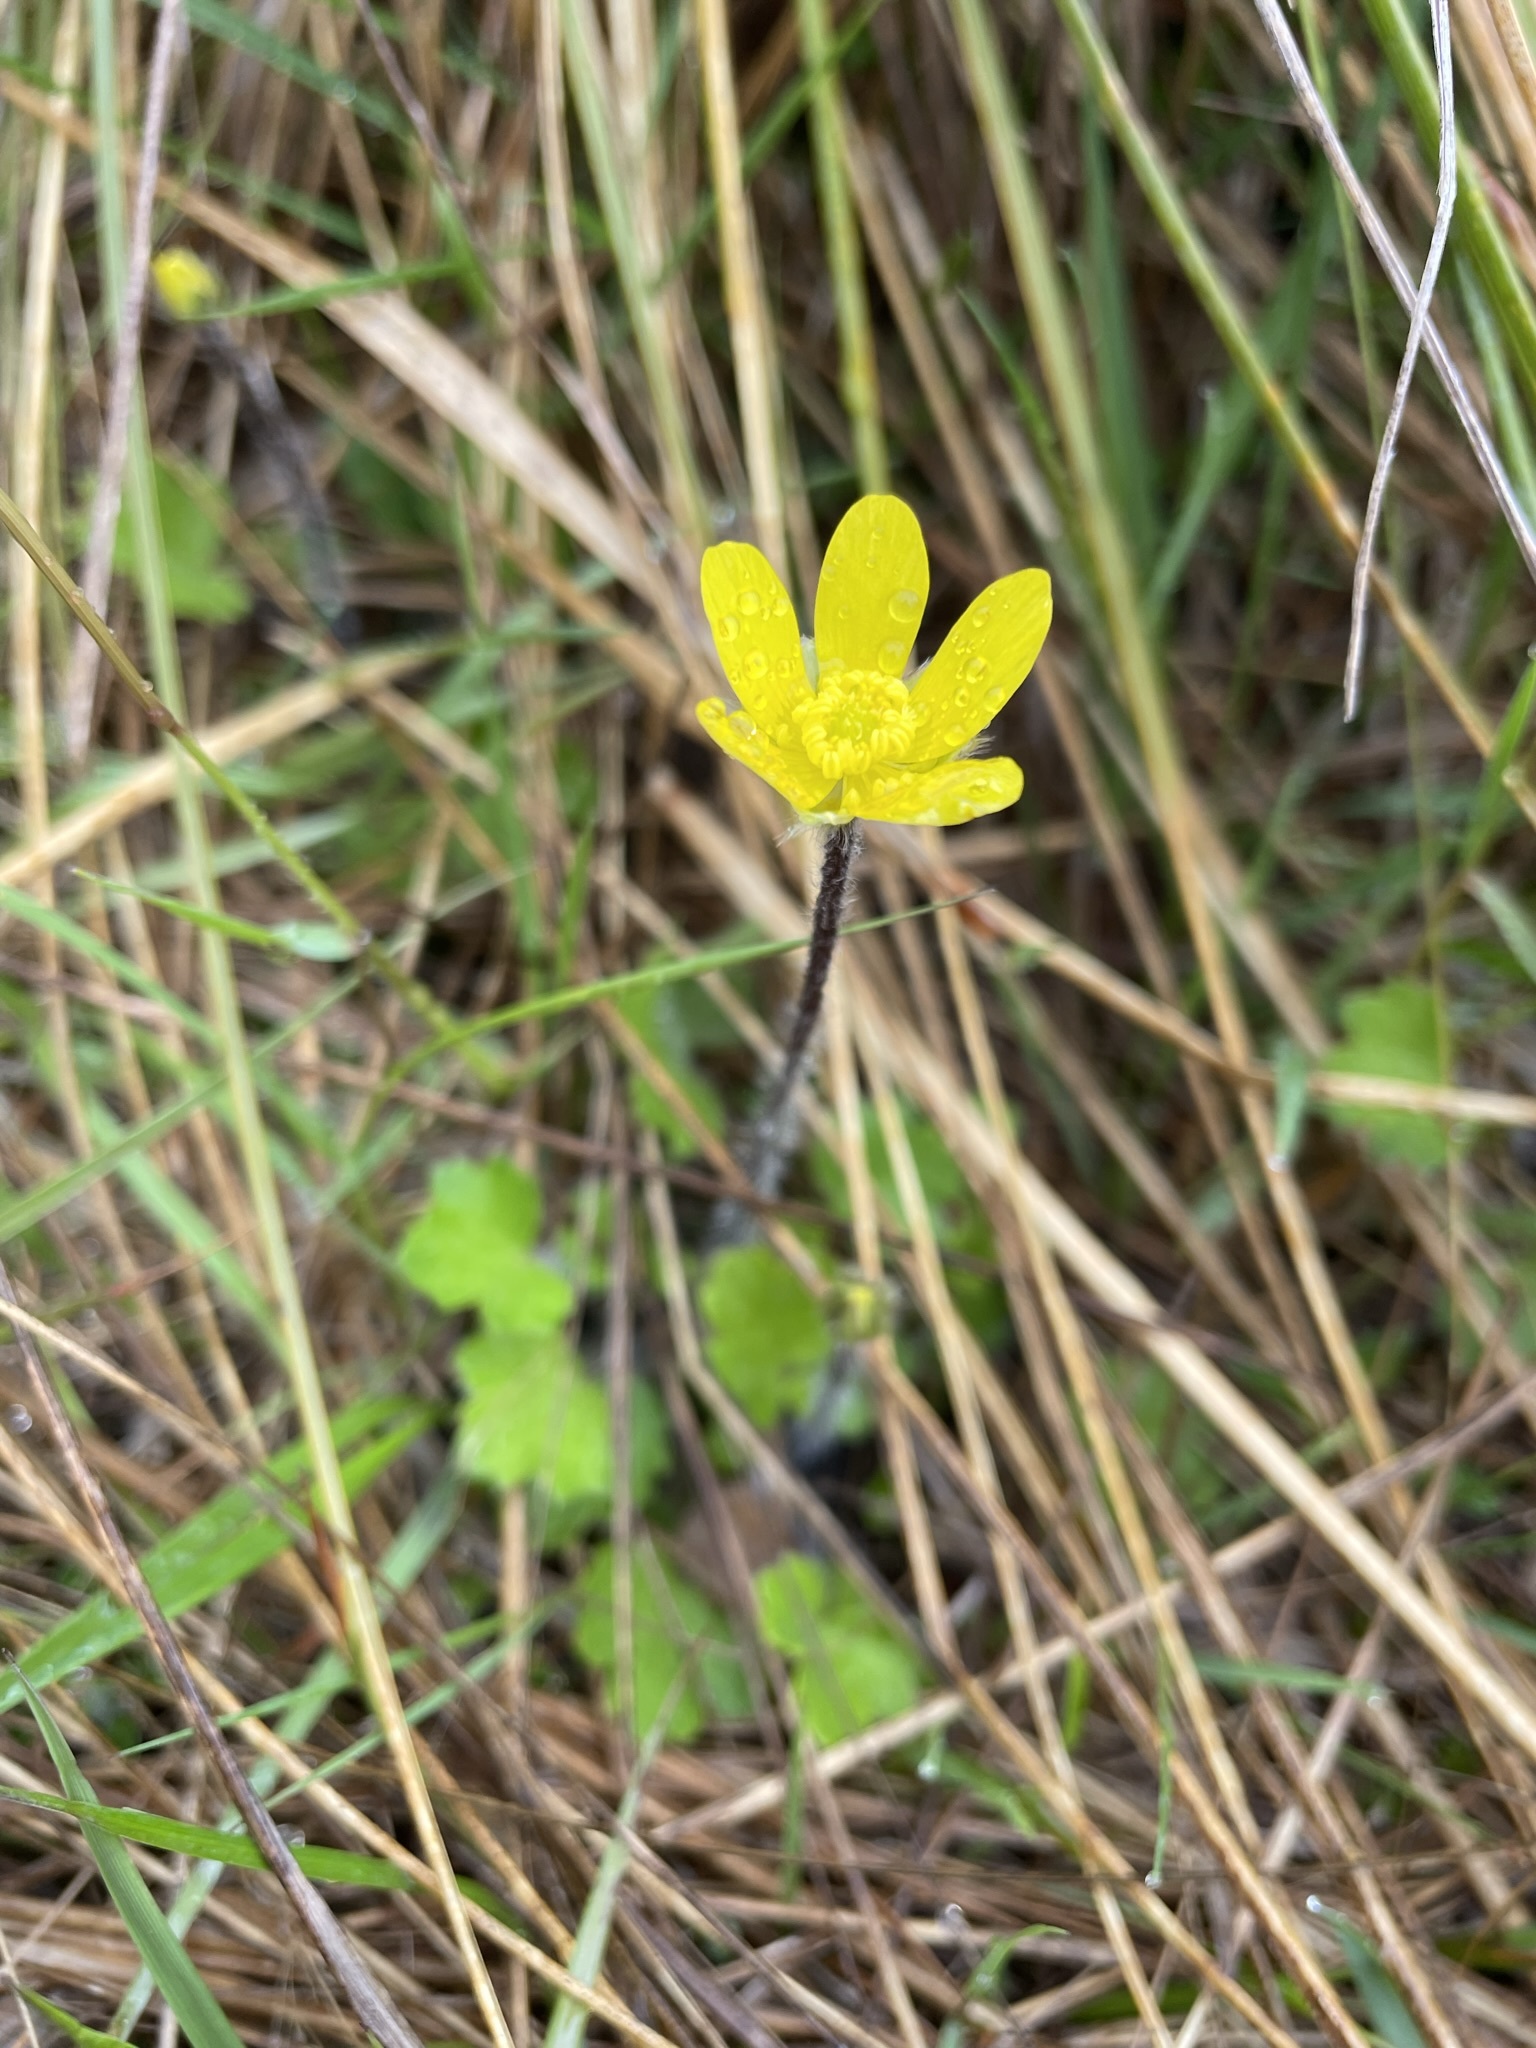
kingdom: Plantae
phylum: Tracheophyta
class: Magnoliopsida
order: Ranunculales
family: Ranunculaceae
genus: Ranunculus
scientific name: Ranunculus multiscapus
